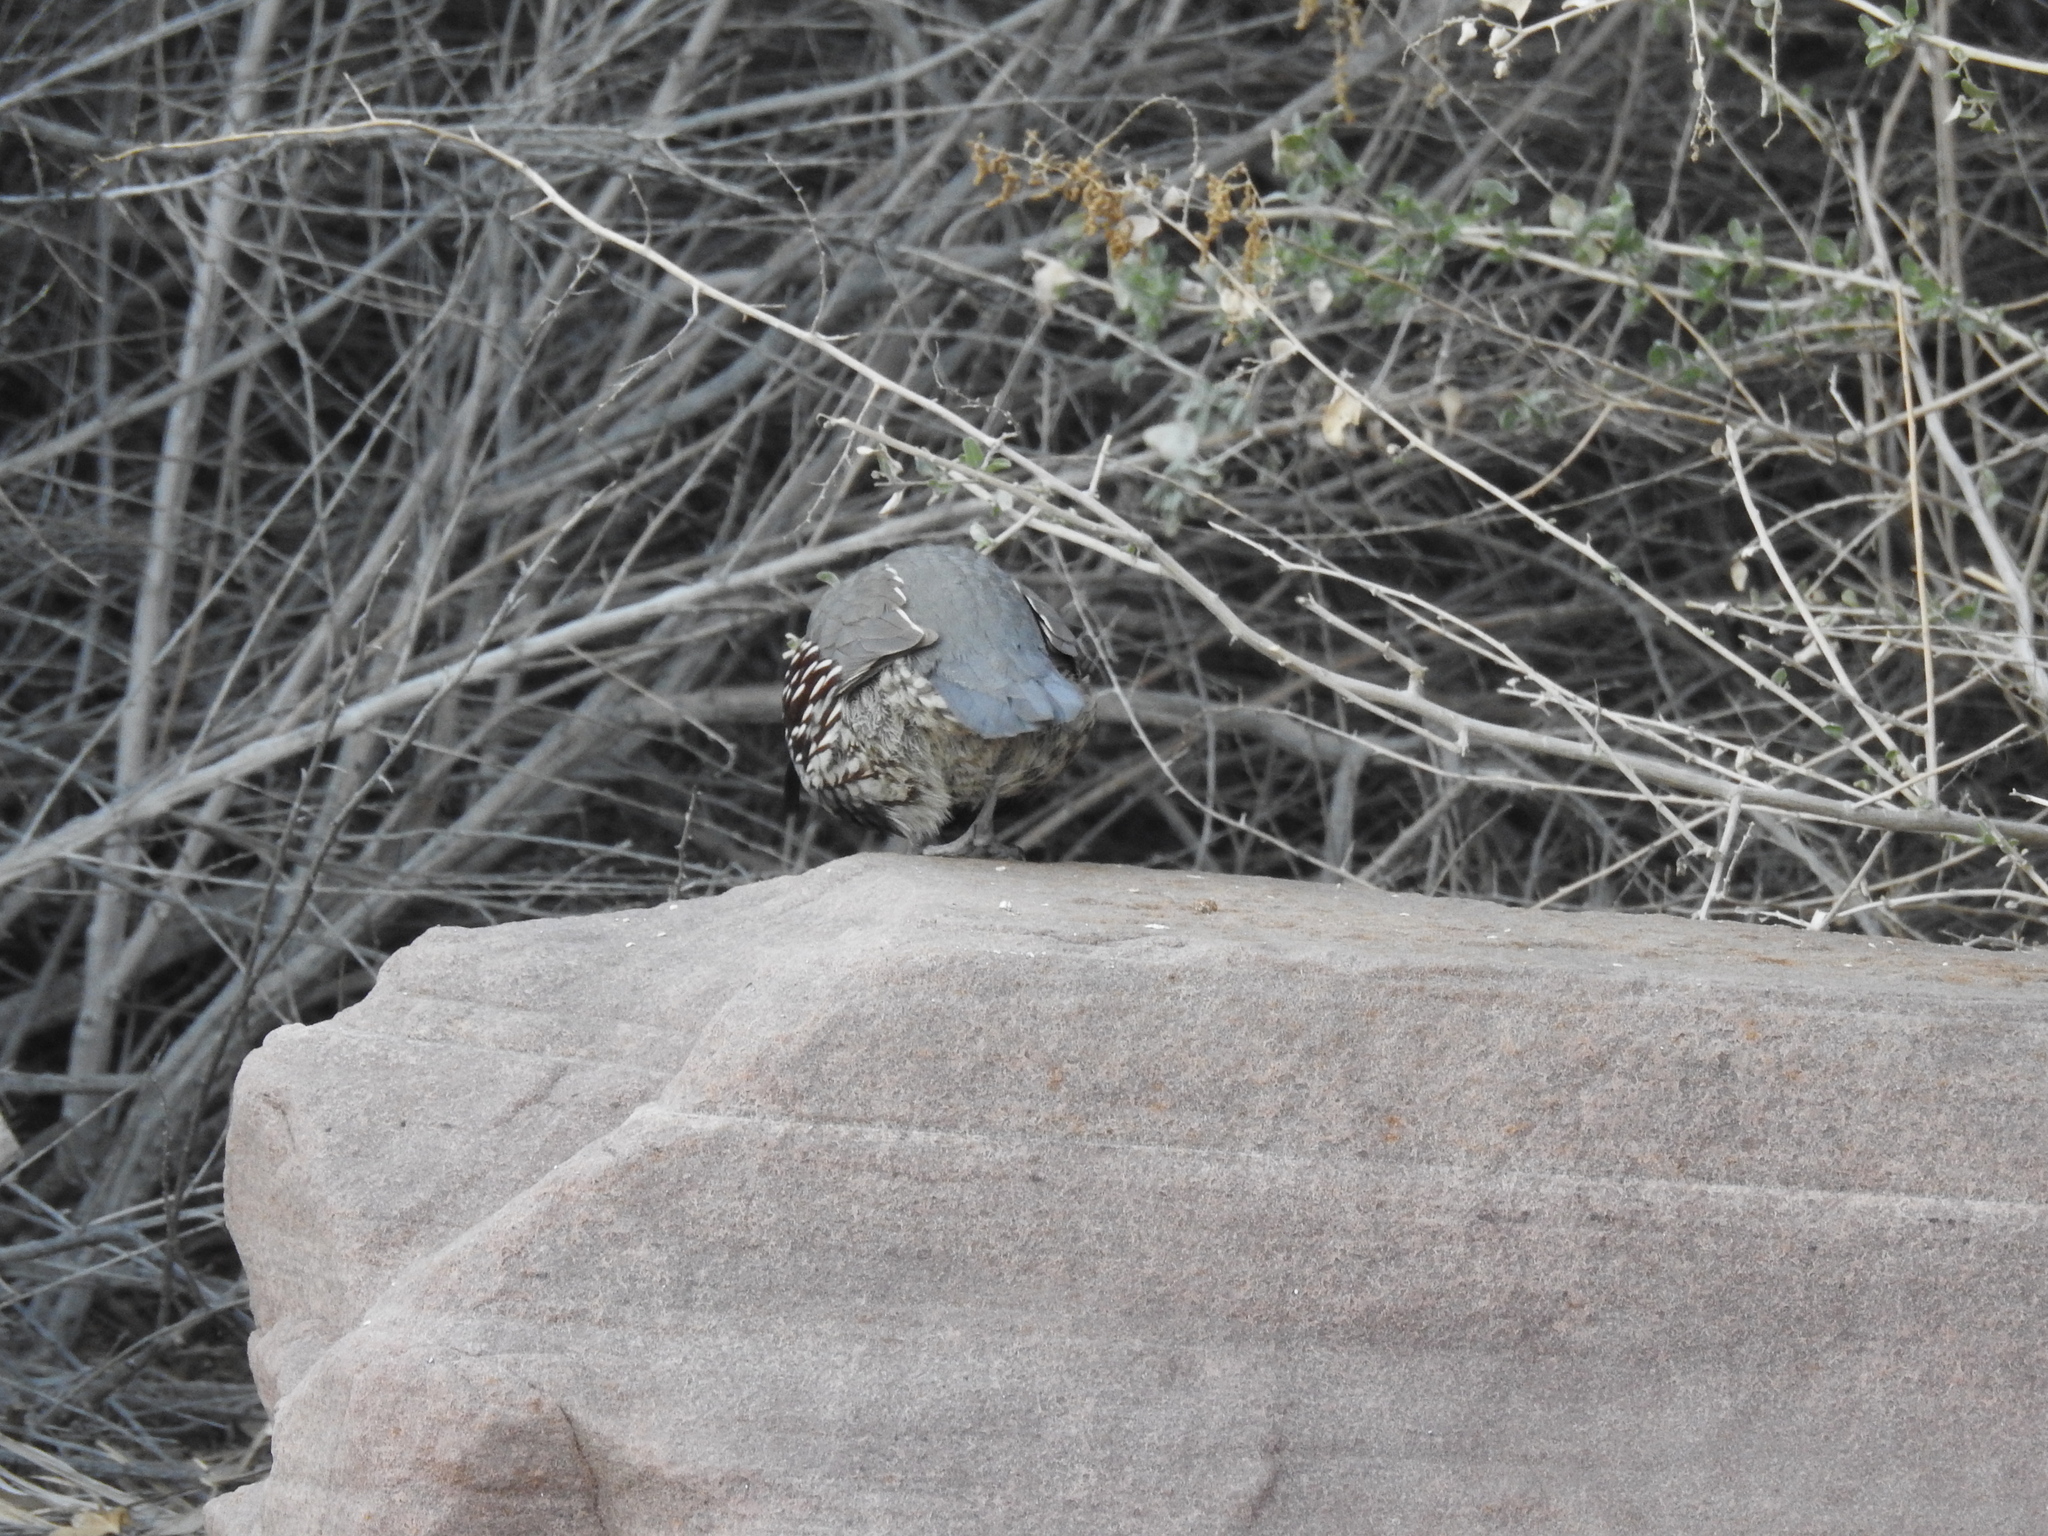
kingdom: Animalia
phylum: Chordata
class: Aves
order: Galliformes
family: Odontophoridae
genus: Callipepla
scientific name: Callipepla gambelii
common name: Gambel's quail
